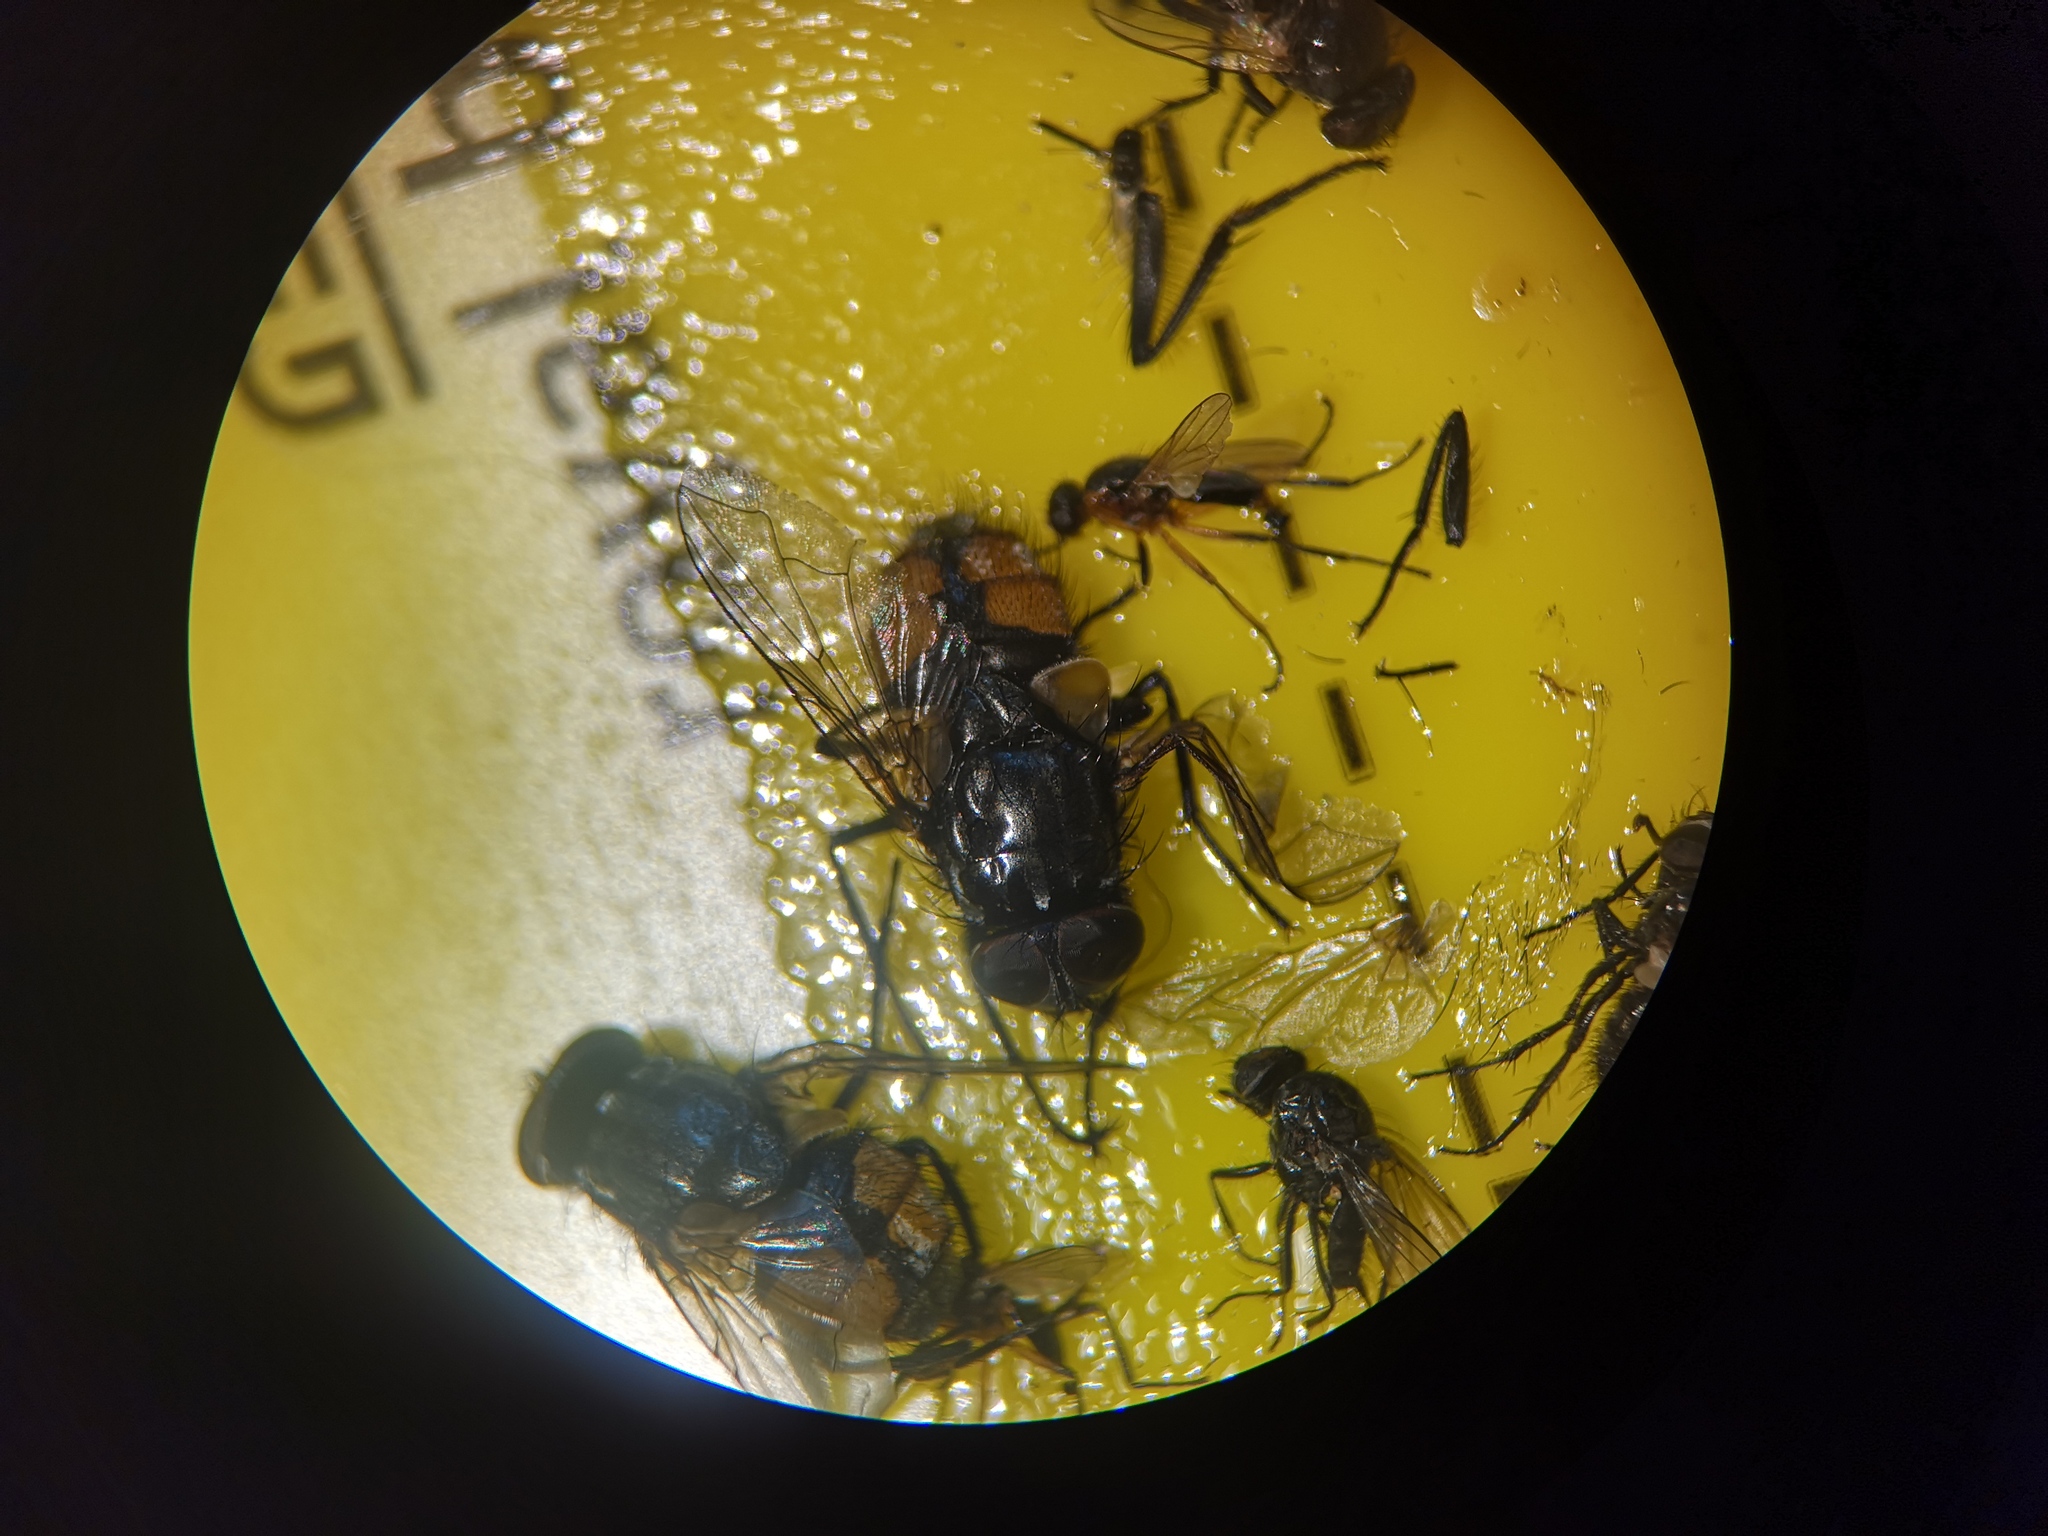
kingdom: Animalia
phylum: Arthropoda
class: Insecta
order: Diptera
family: Muscidae
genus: Musca
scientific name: Musca autumnalis
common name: Face fly
